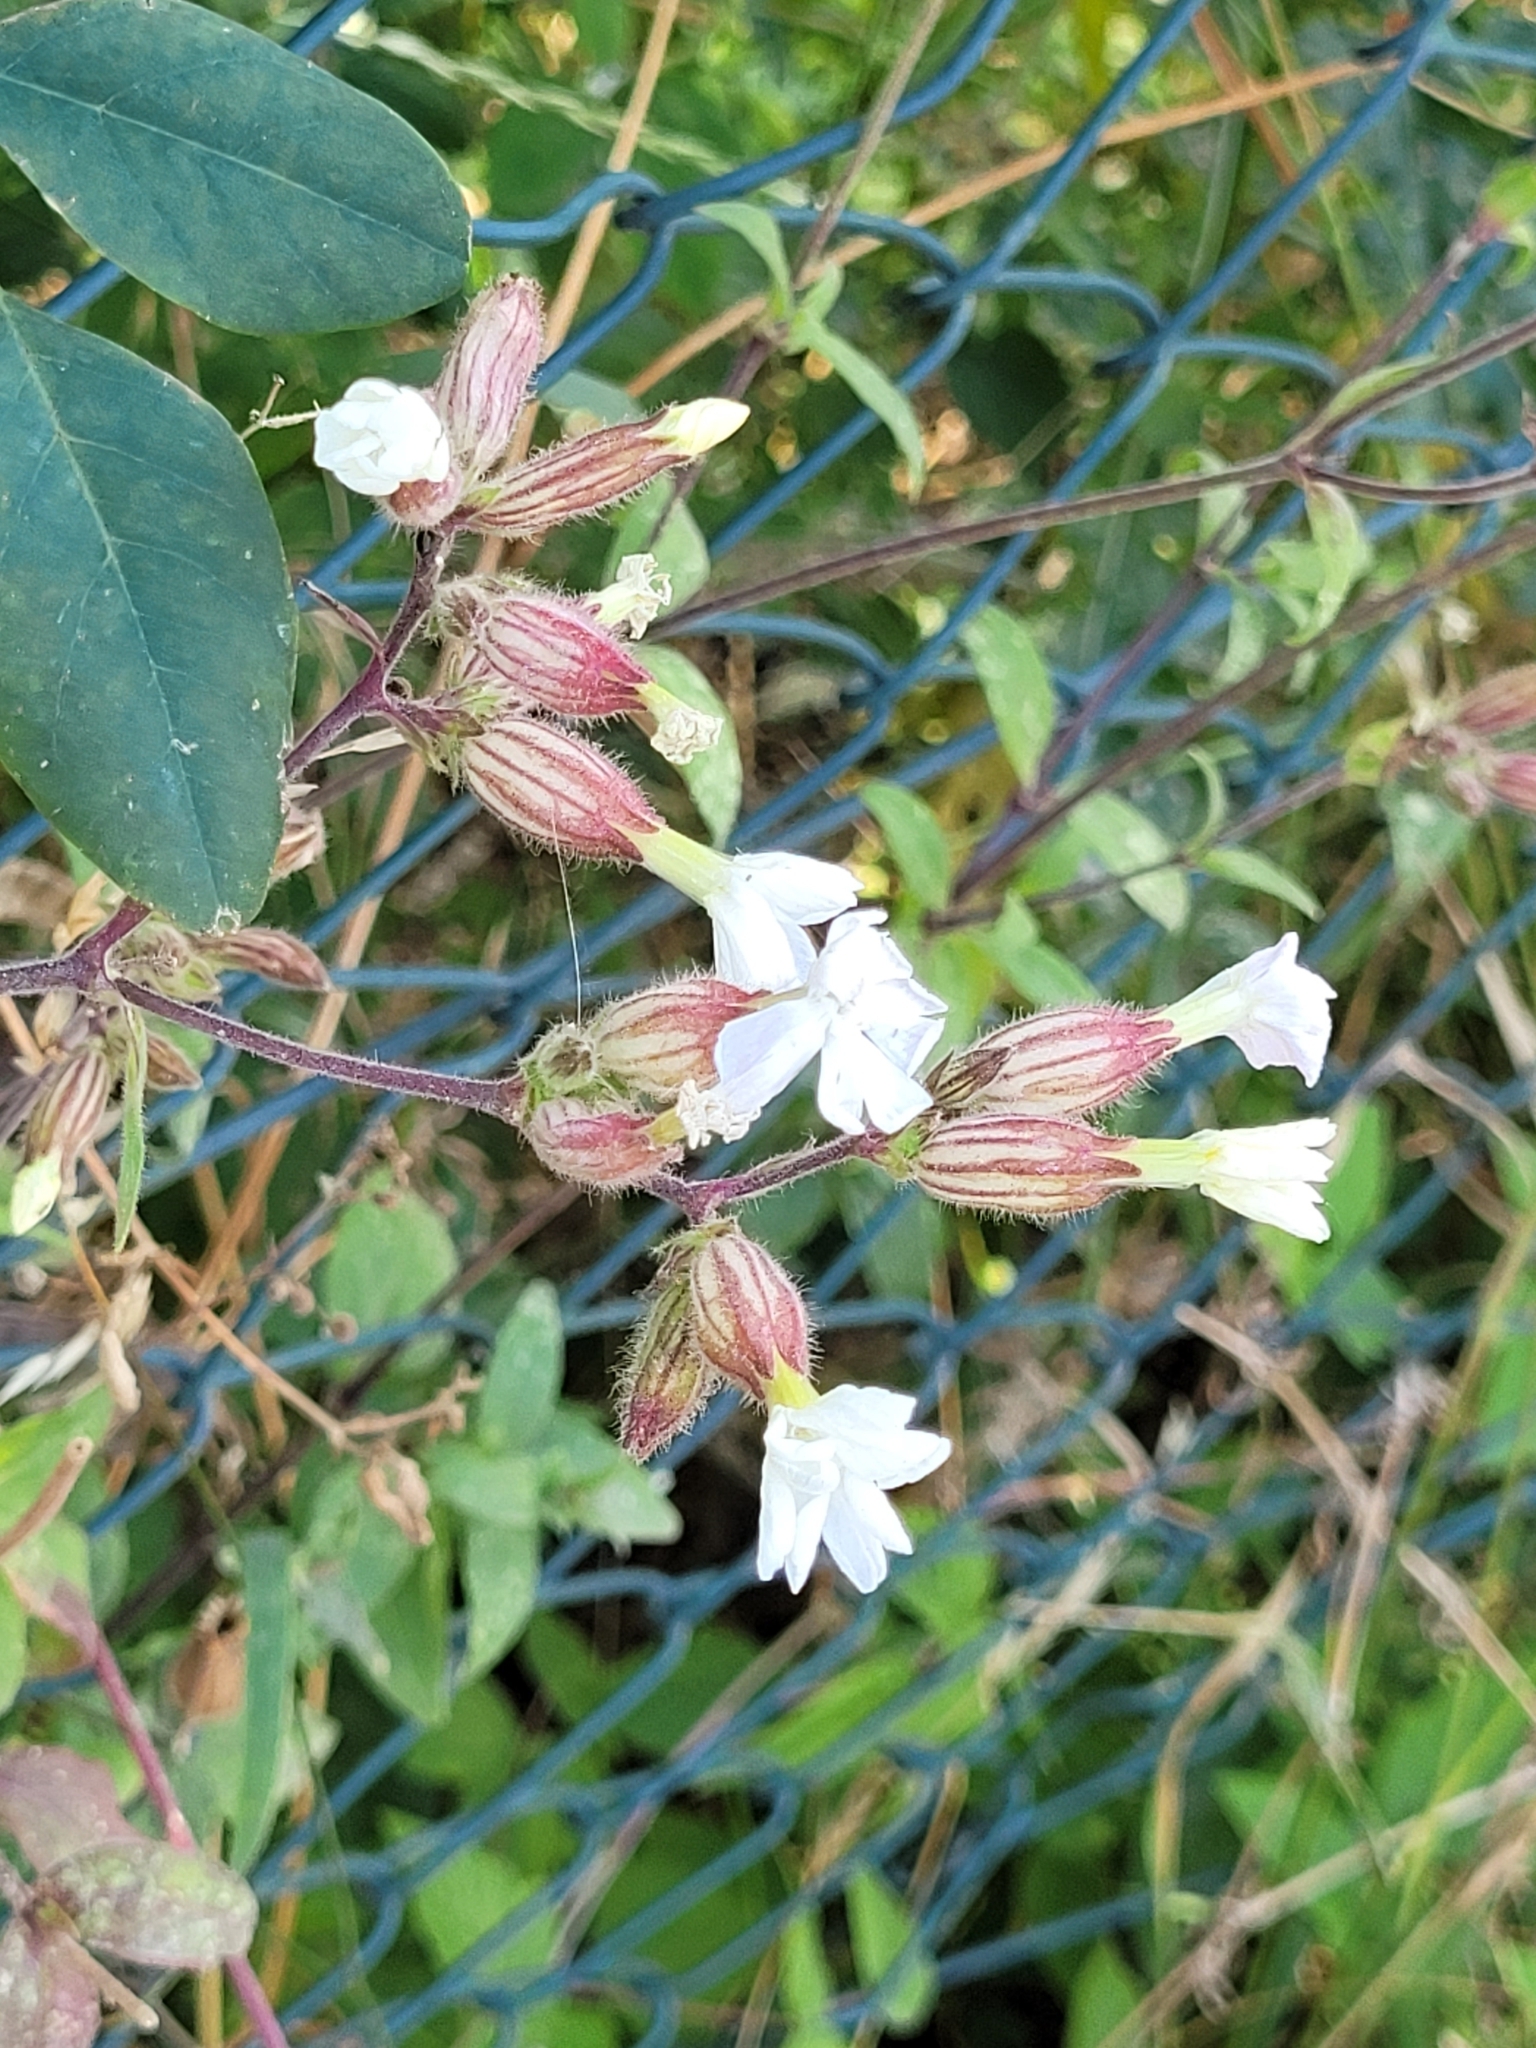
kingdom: Plantae
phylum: Tracheophyta
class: Magnoliopsida
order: Caryophyllales
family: Caryophyllaceae
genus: Silene
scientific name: Silene latifolia
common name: White campion
